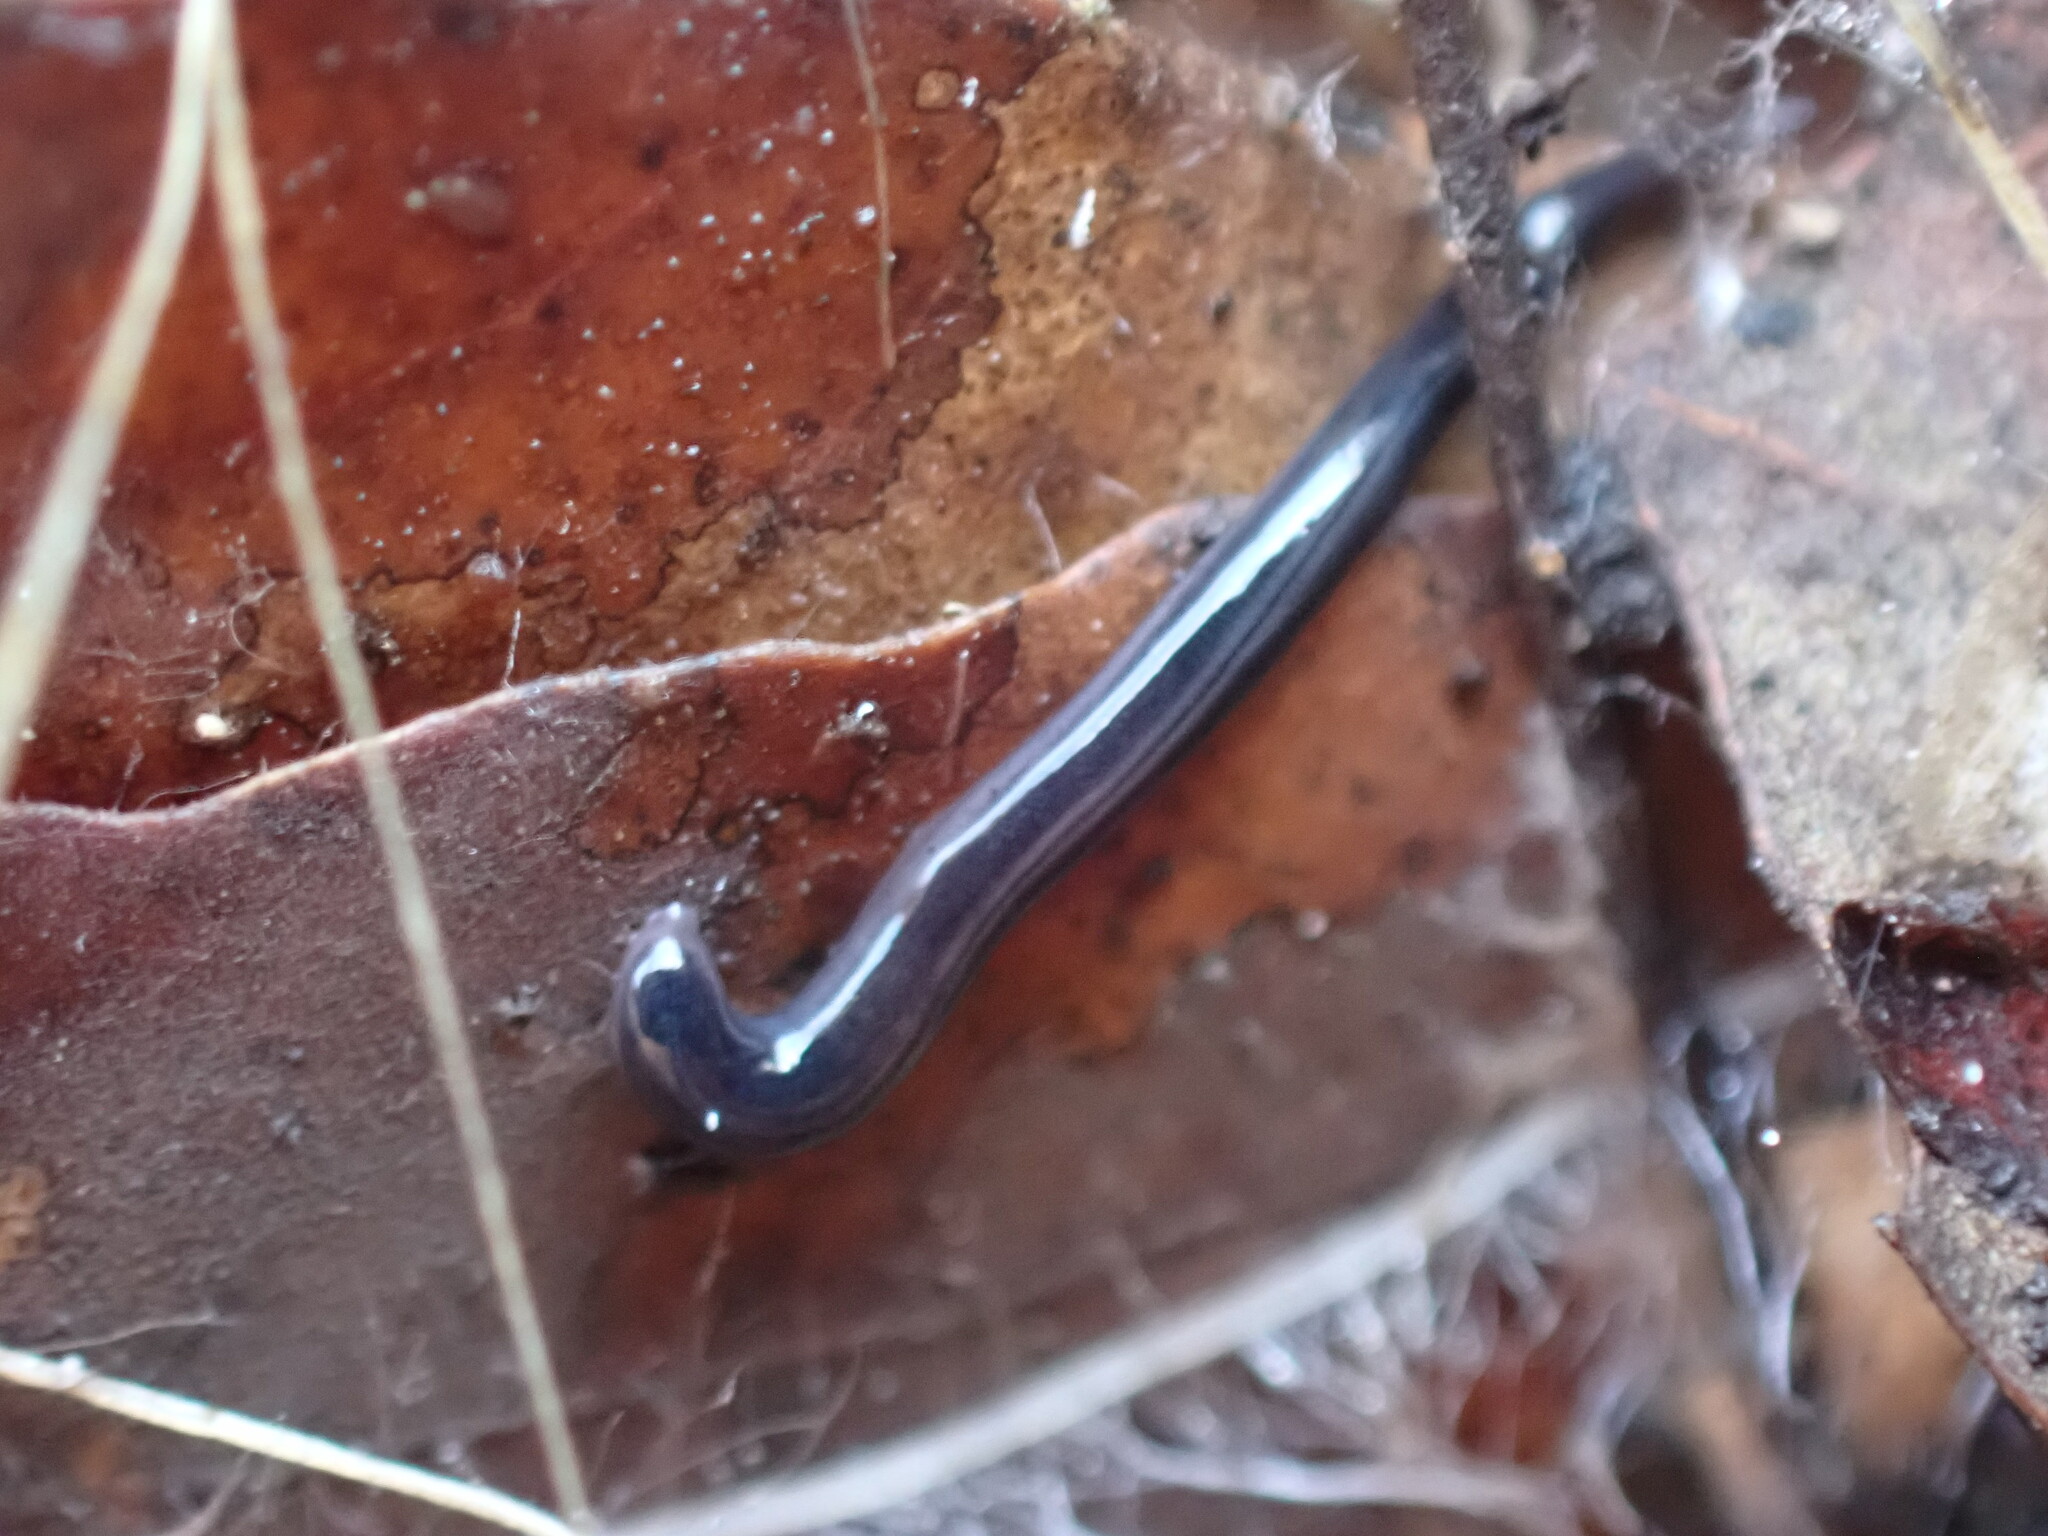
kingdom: Animalia
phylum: Platyhelminthes
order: Tricladida
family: Geoplanidae
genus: Parakontikia
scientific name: Parakontikia ventrolineata
